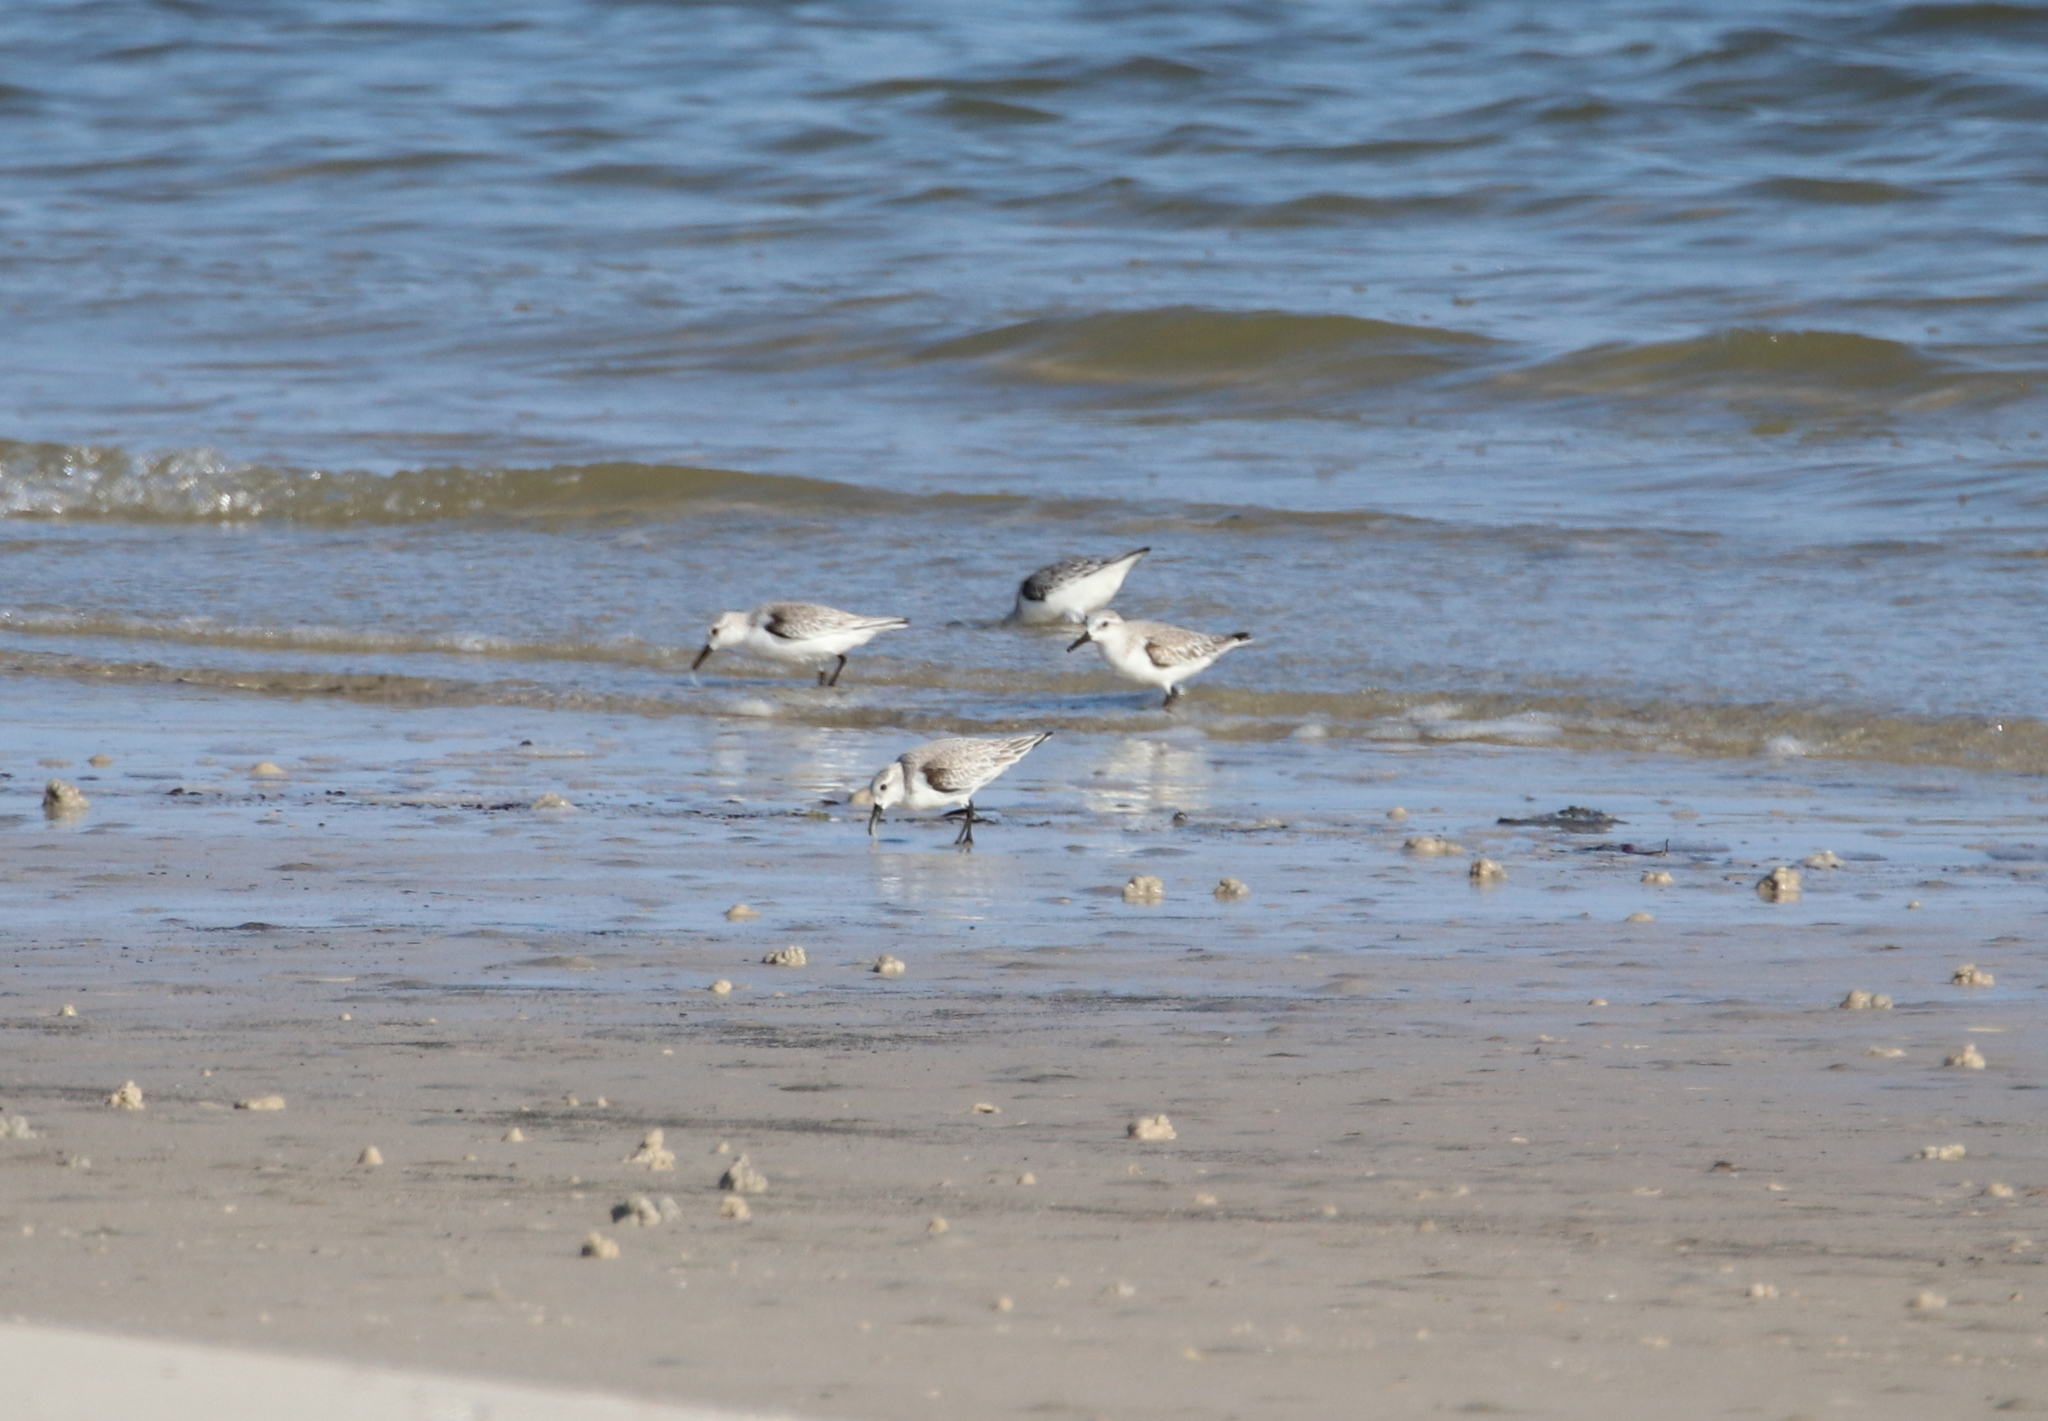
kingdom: Animalia
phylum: Chordata
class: Aves
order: Charadriiformes
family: Scolopacidae
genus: Calidris
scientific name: Calidris alba
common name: Sanderling
